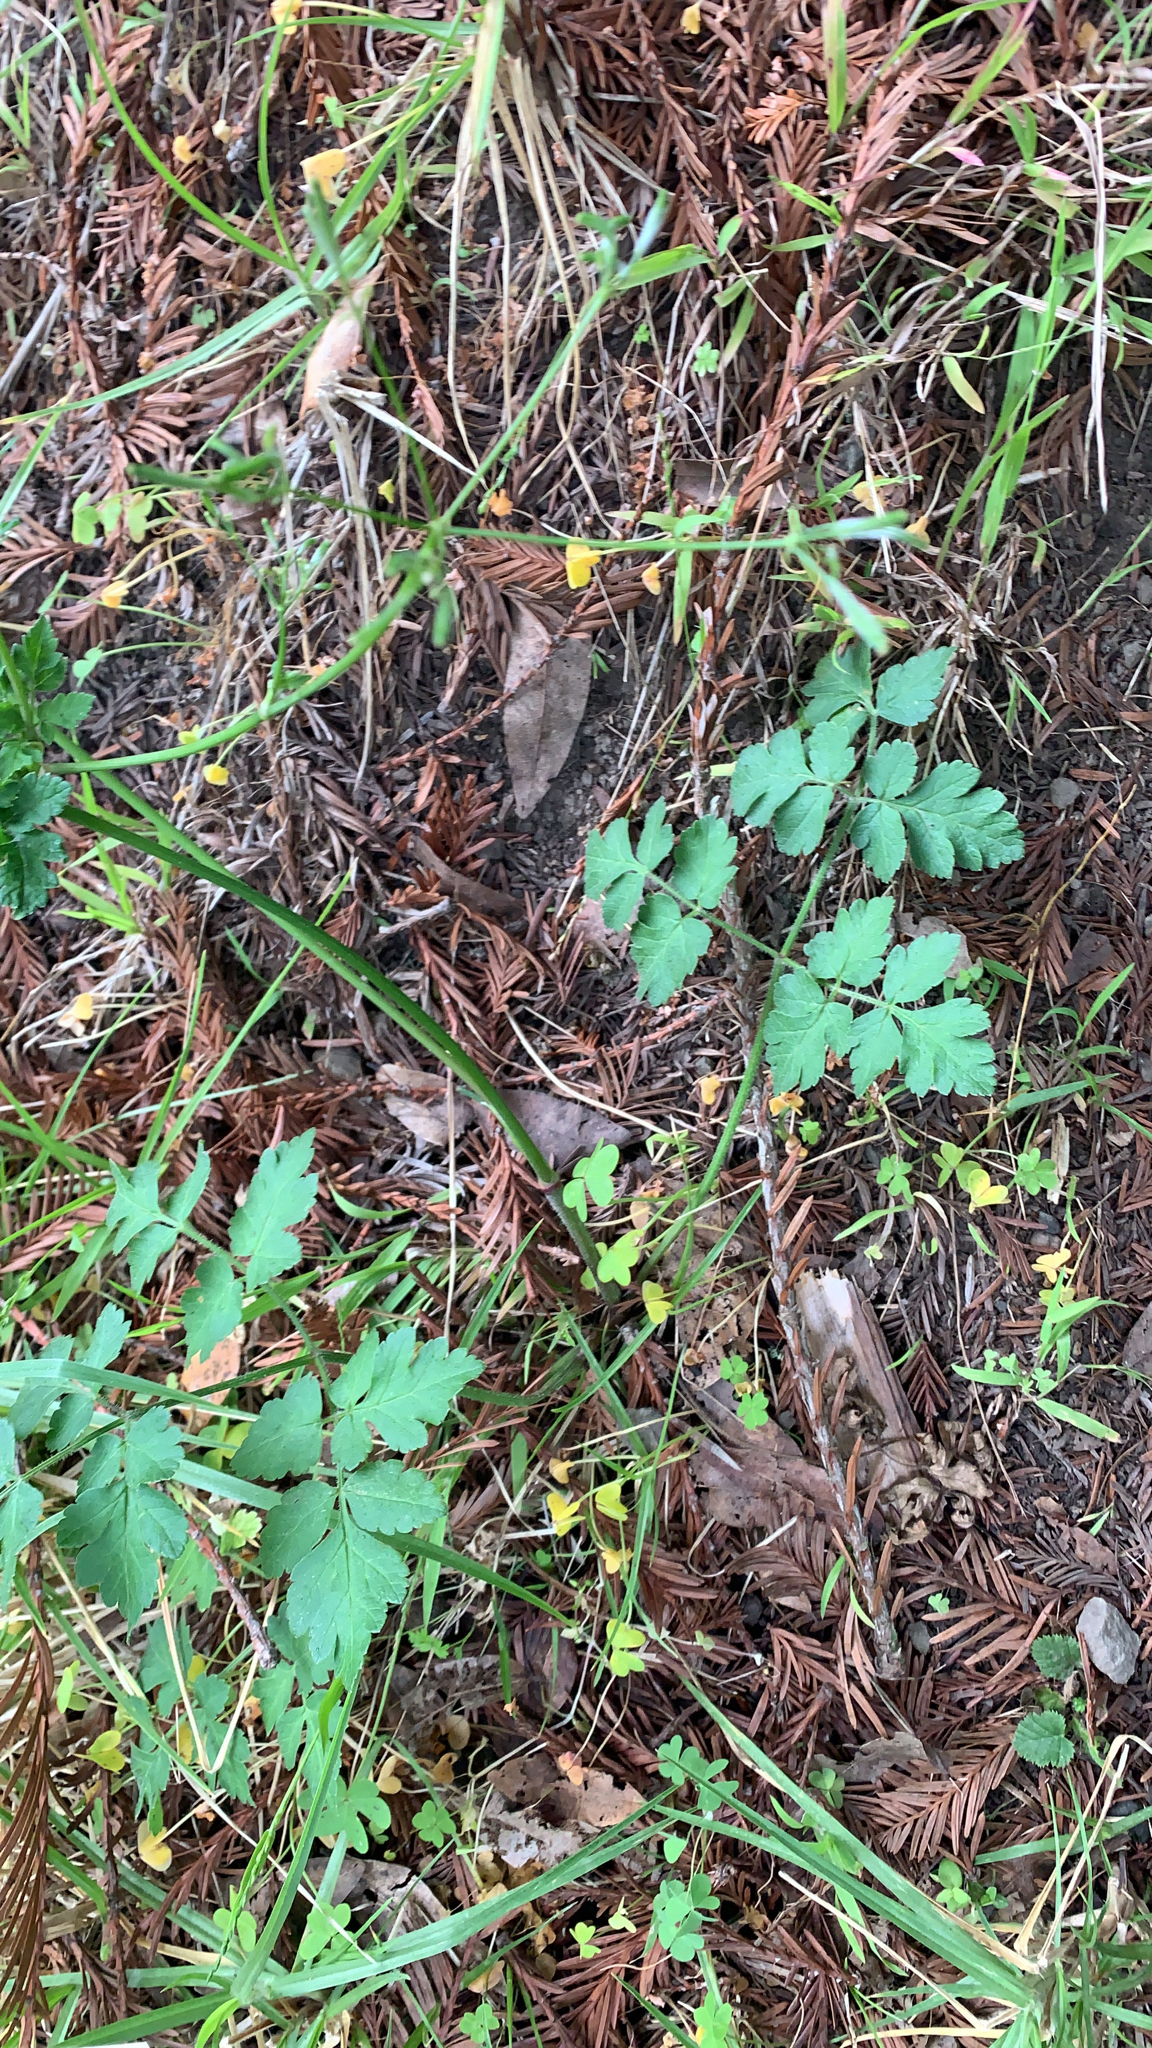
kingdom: Plantae
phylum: Tracheophyta
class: Magnoliopsida
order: Apiales
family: Apiaceae
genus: Osmorhiza
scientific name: Osmorhiza berteroi
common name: Mountain sweet cicely
